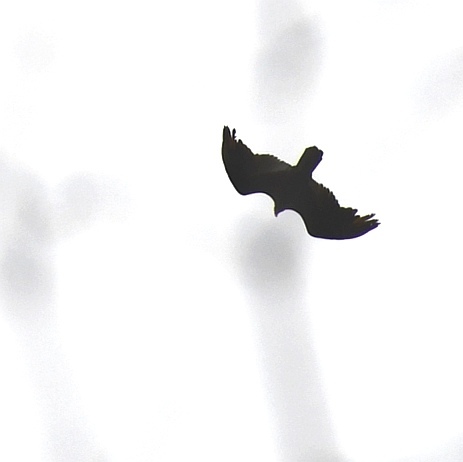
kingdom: Animalia
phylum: Chordata
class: Aves
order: Accipitriformes
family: Cathartidae
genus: Cathartes
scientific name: Cathartes aura
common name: Turkey vulture
